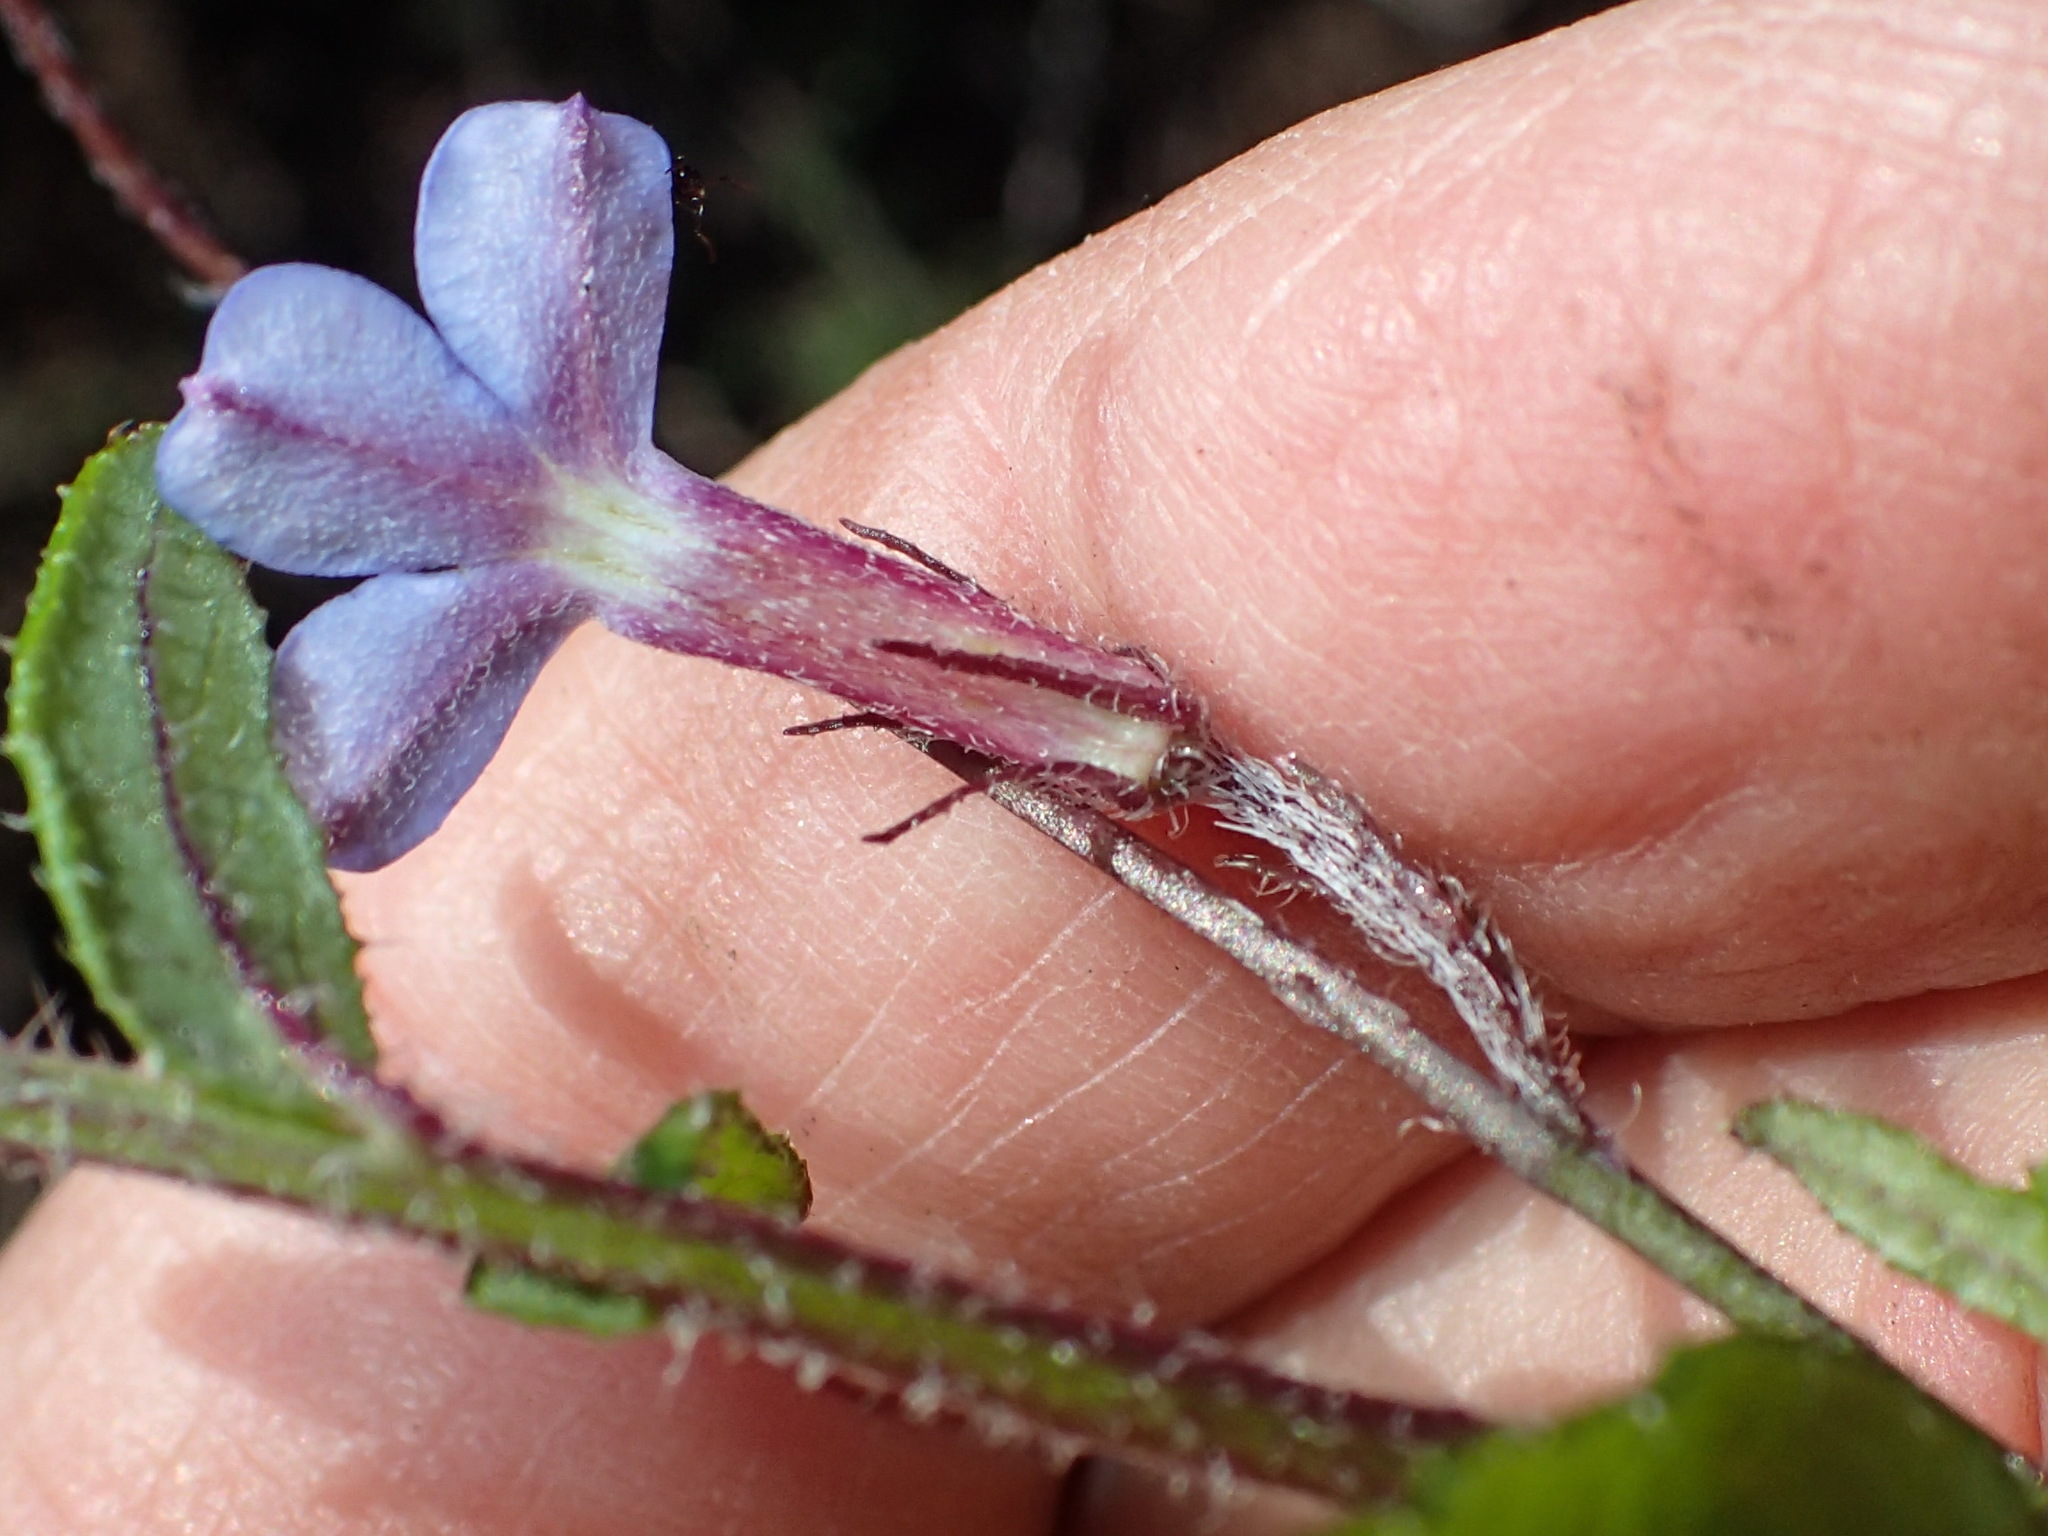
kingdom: Plantae
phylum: Tracheophyta
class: Magnoliopsida
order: Asterales
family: Campanulaceae
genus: Lobelia
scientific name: Lobelia neglecta
